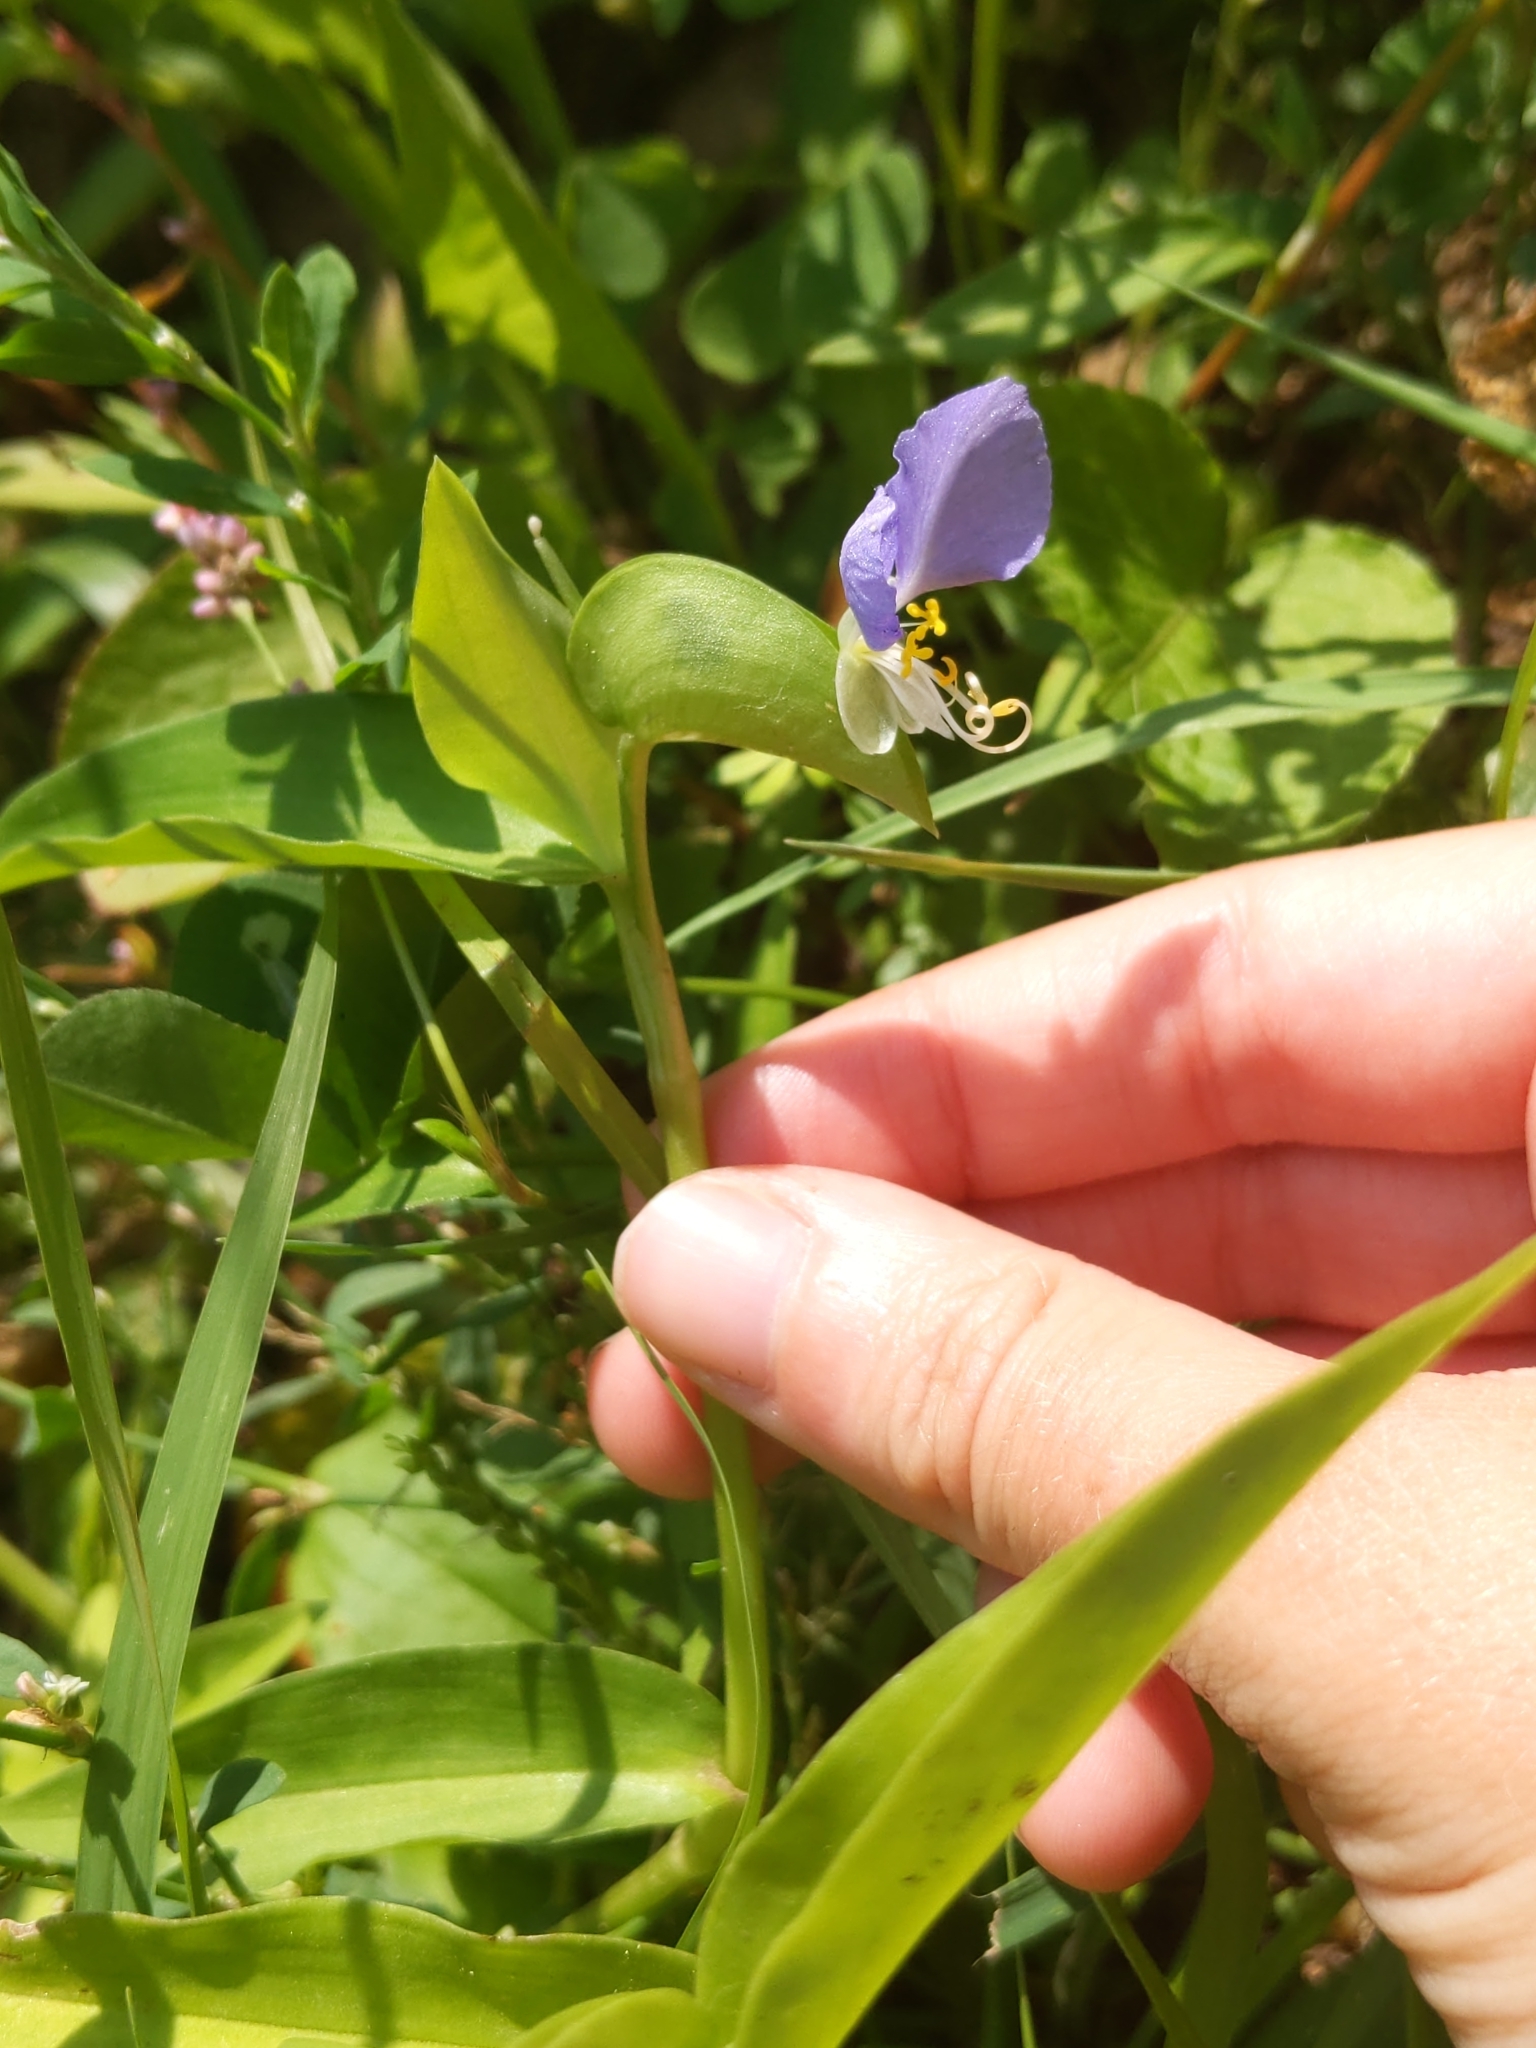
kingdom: Plantae
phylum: Tracheophyta
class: Liliopsida
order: Commelinales
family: Commelinaceae
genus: Commelina
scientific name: Commelina communis
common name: Asiatic dayflower
